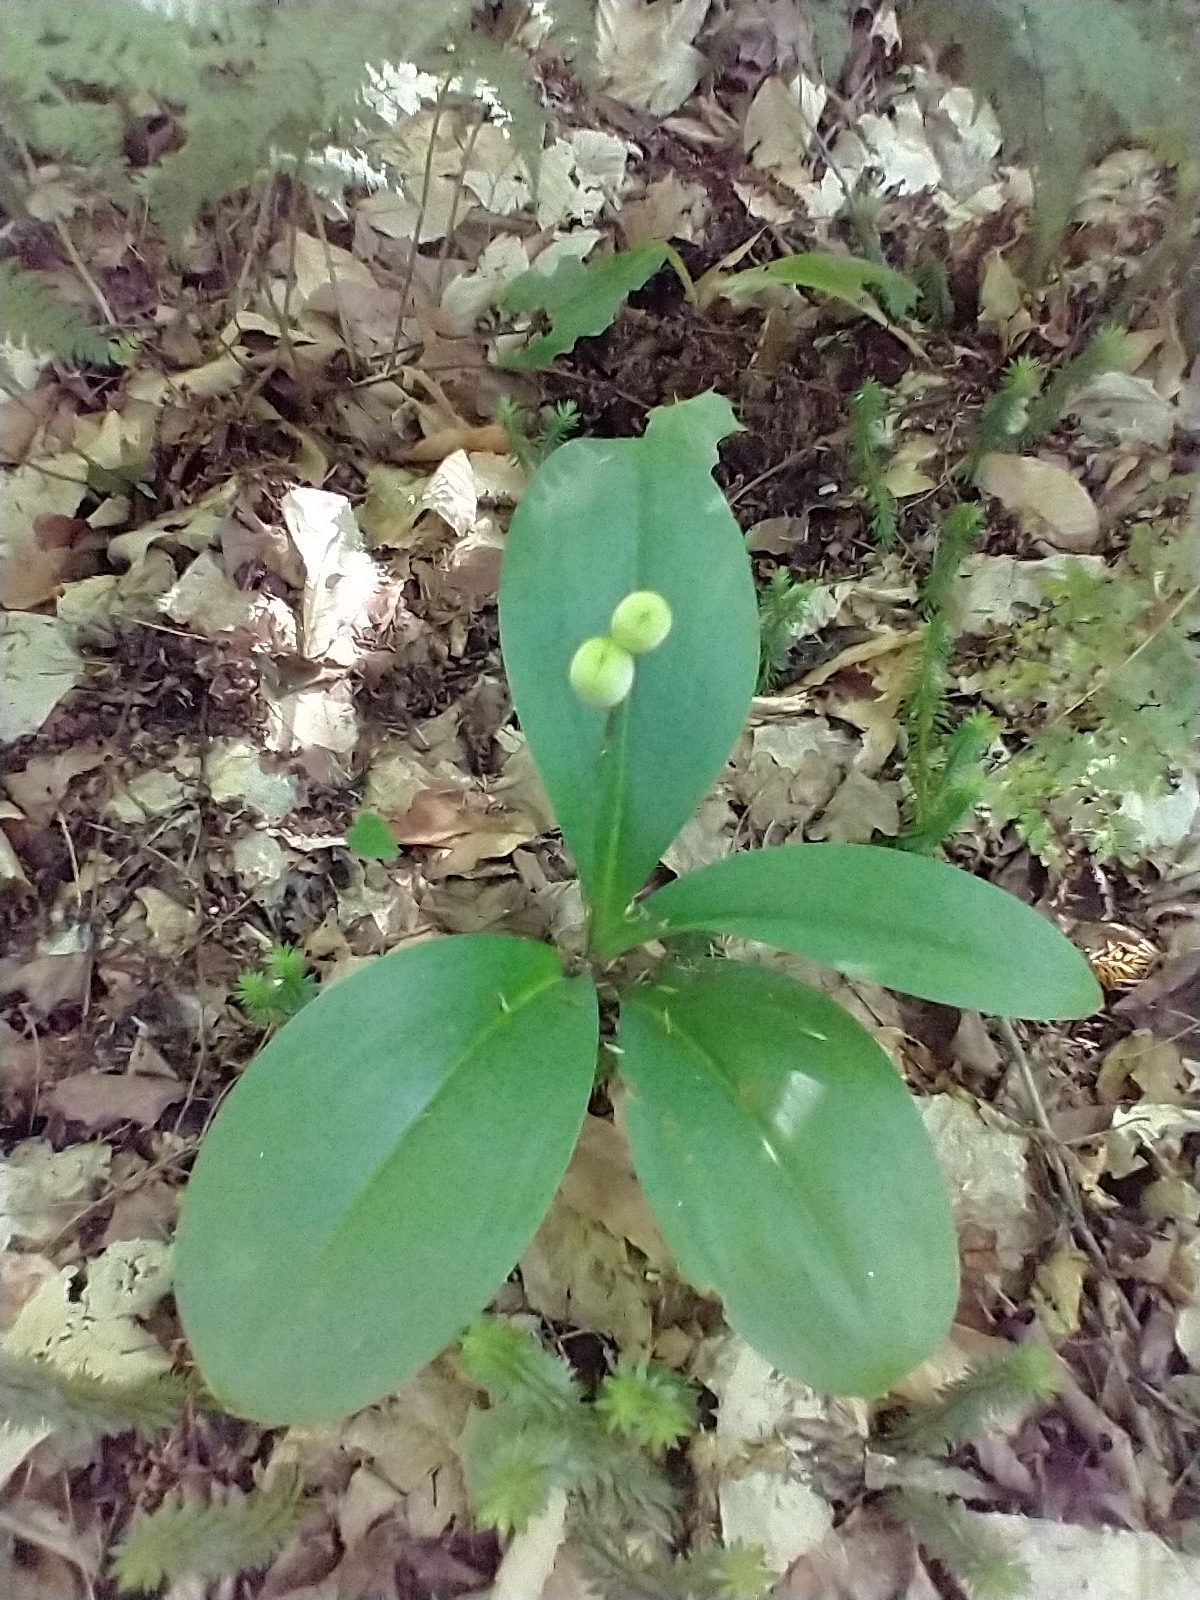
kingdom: Plantae
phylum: Tracheophyta
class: Liliopsida
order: Liliales
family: Liliaceae
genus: Clintonia
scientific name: Clintonia borealis
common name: Yellow clintonia
